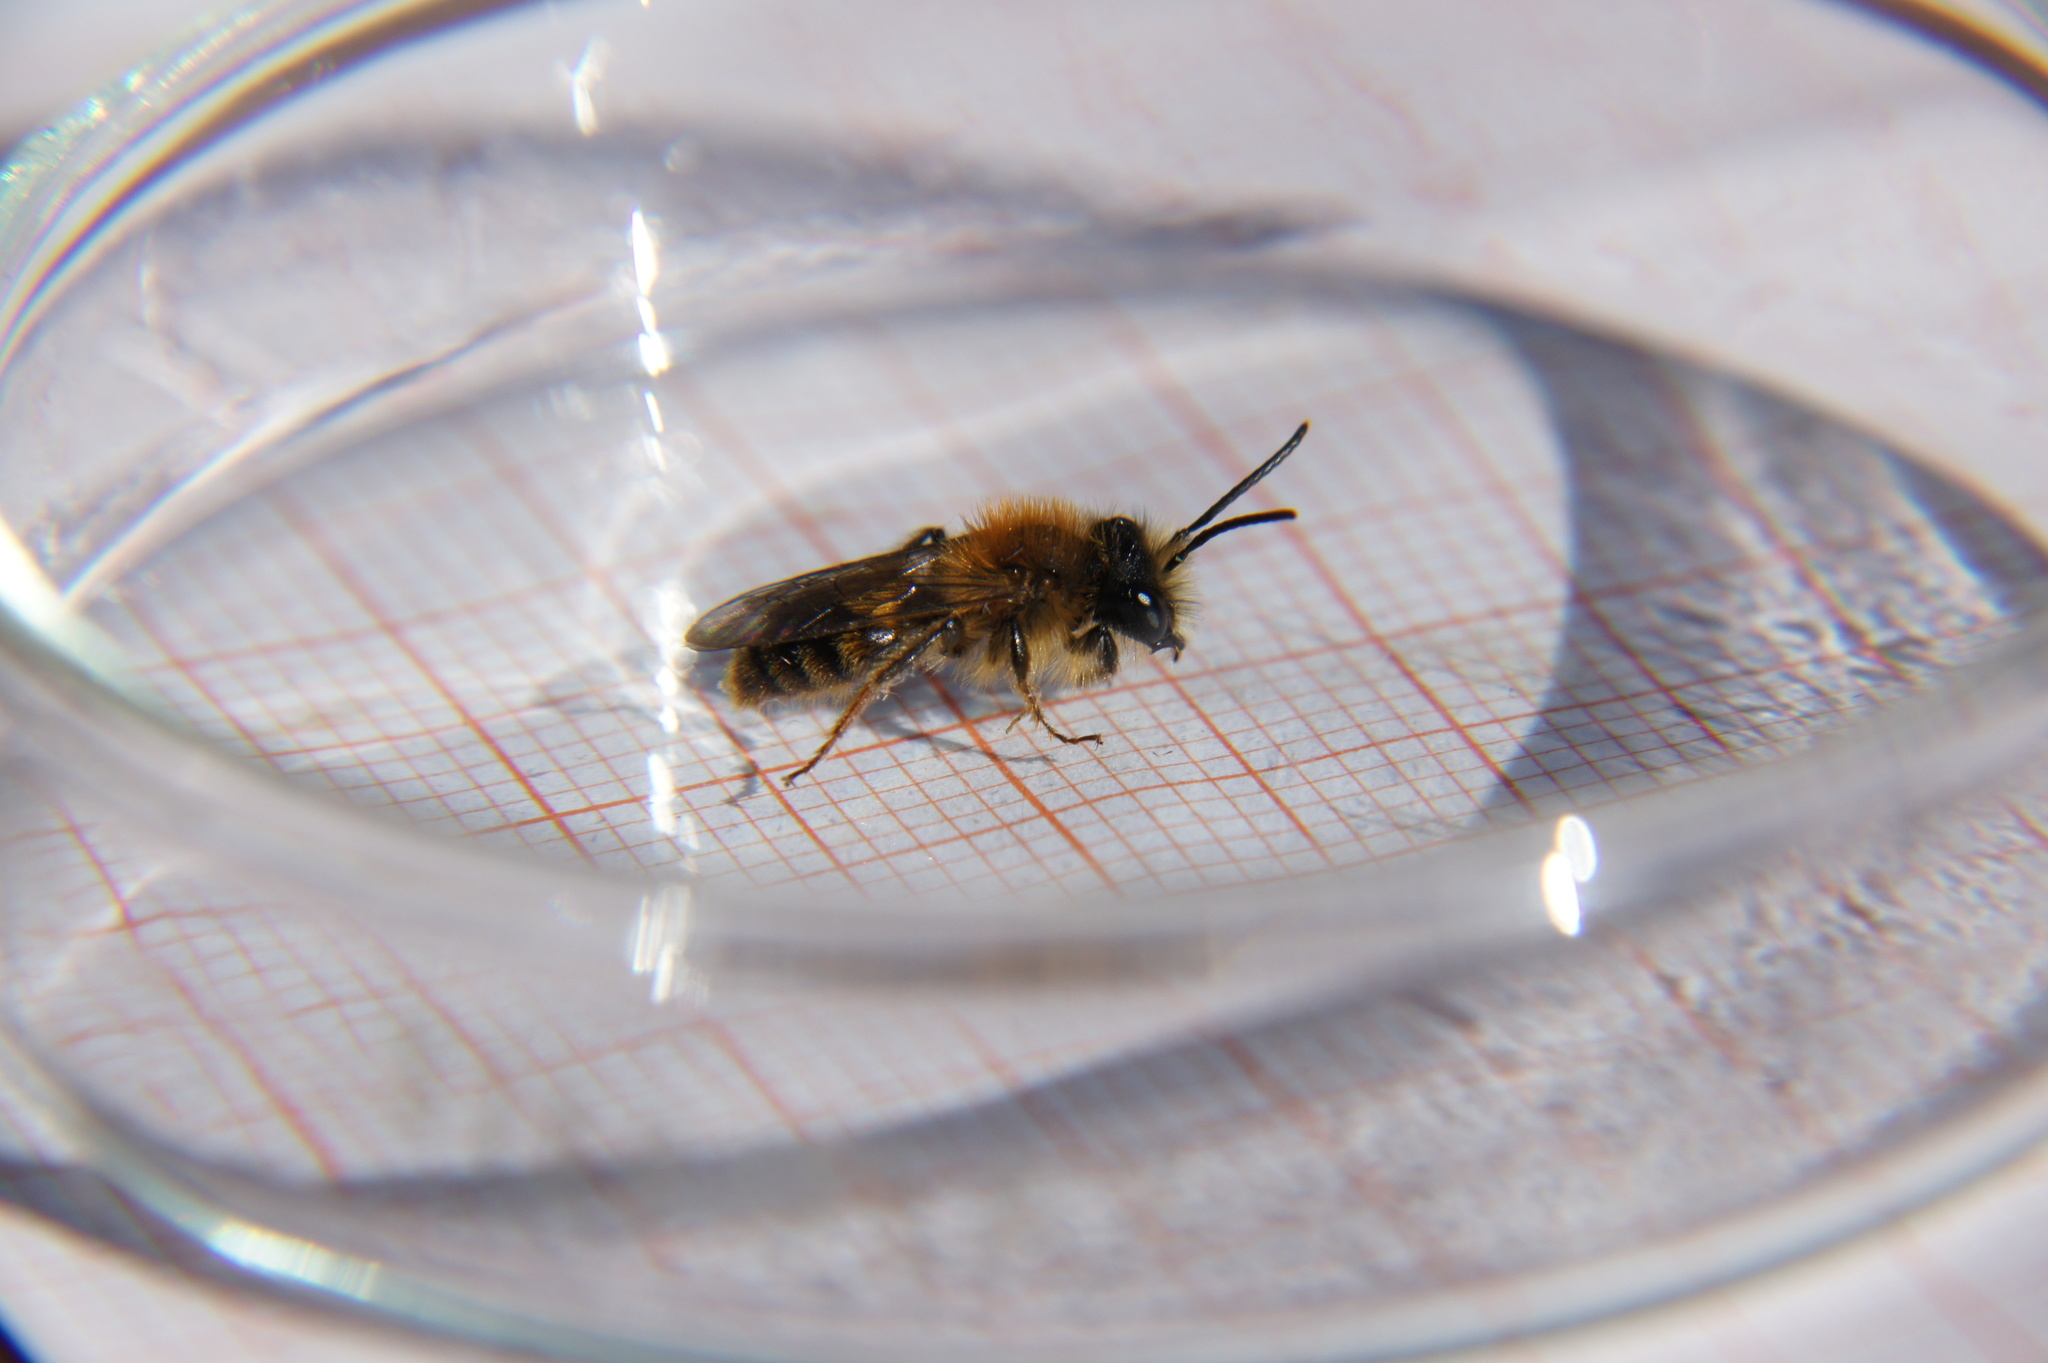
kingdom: Animalia
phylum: Arthropoda
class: Insecta
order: Hymenoptera
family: Andrenidae
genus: Andrena
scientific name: Andrena fulva
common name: Tawny mining bee
